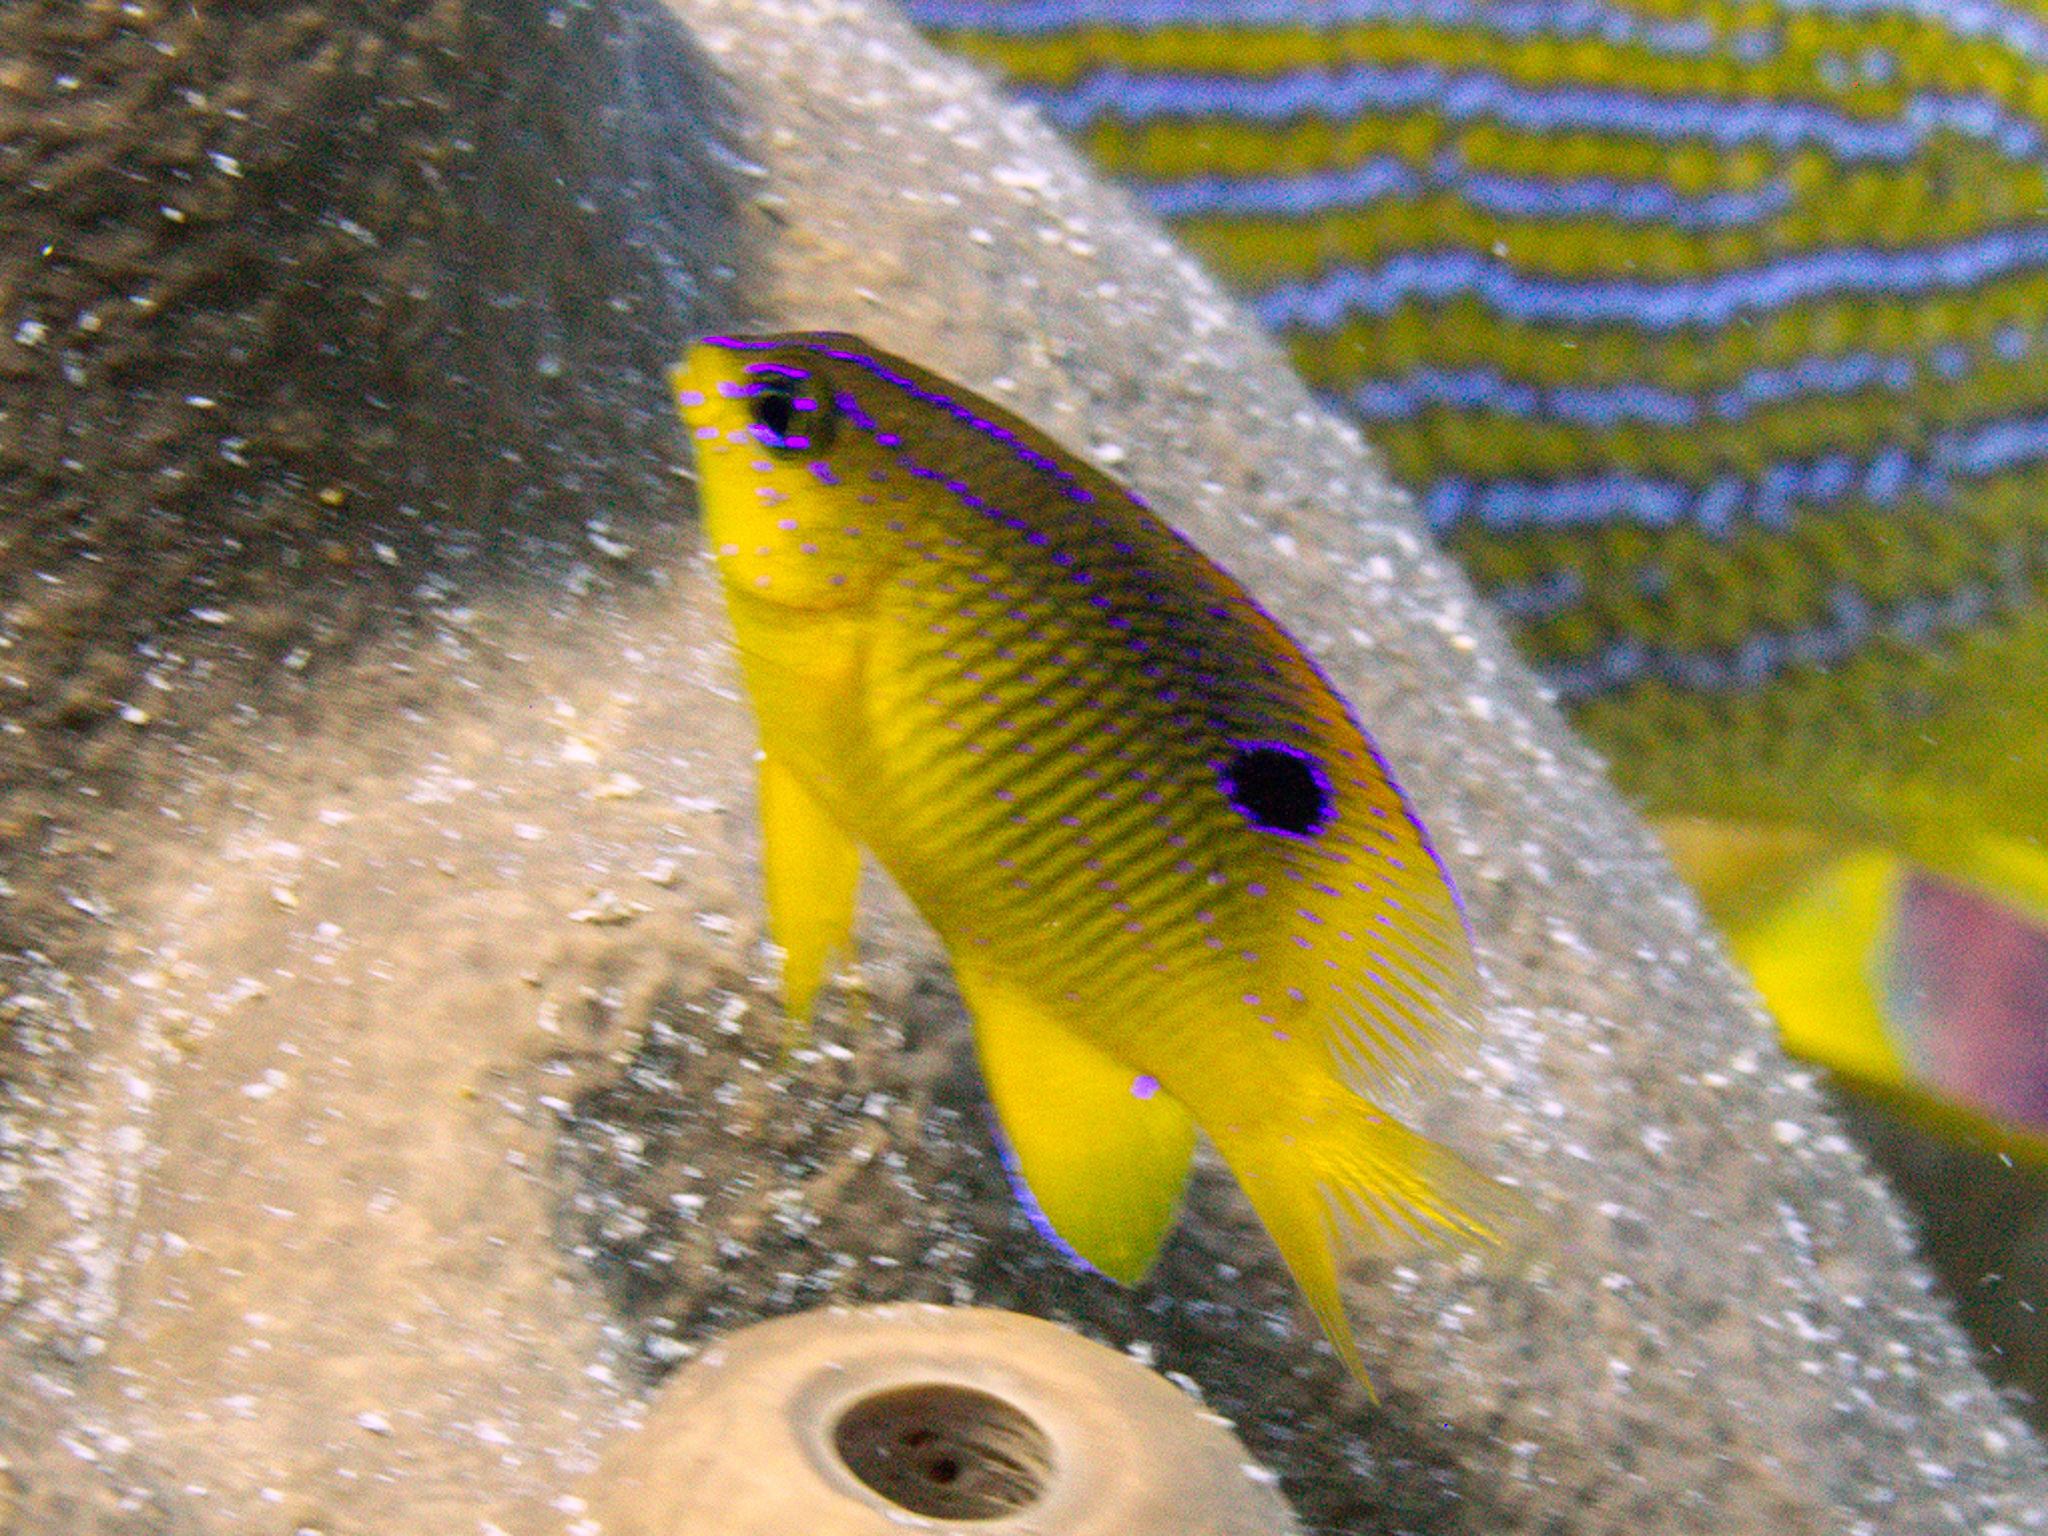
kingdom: Animalia
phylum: Chordata
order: Perciformes
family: Pomacentridae
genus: Stegastes
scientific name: Stegastes diencaeus
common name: Longfin damselfish
